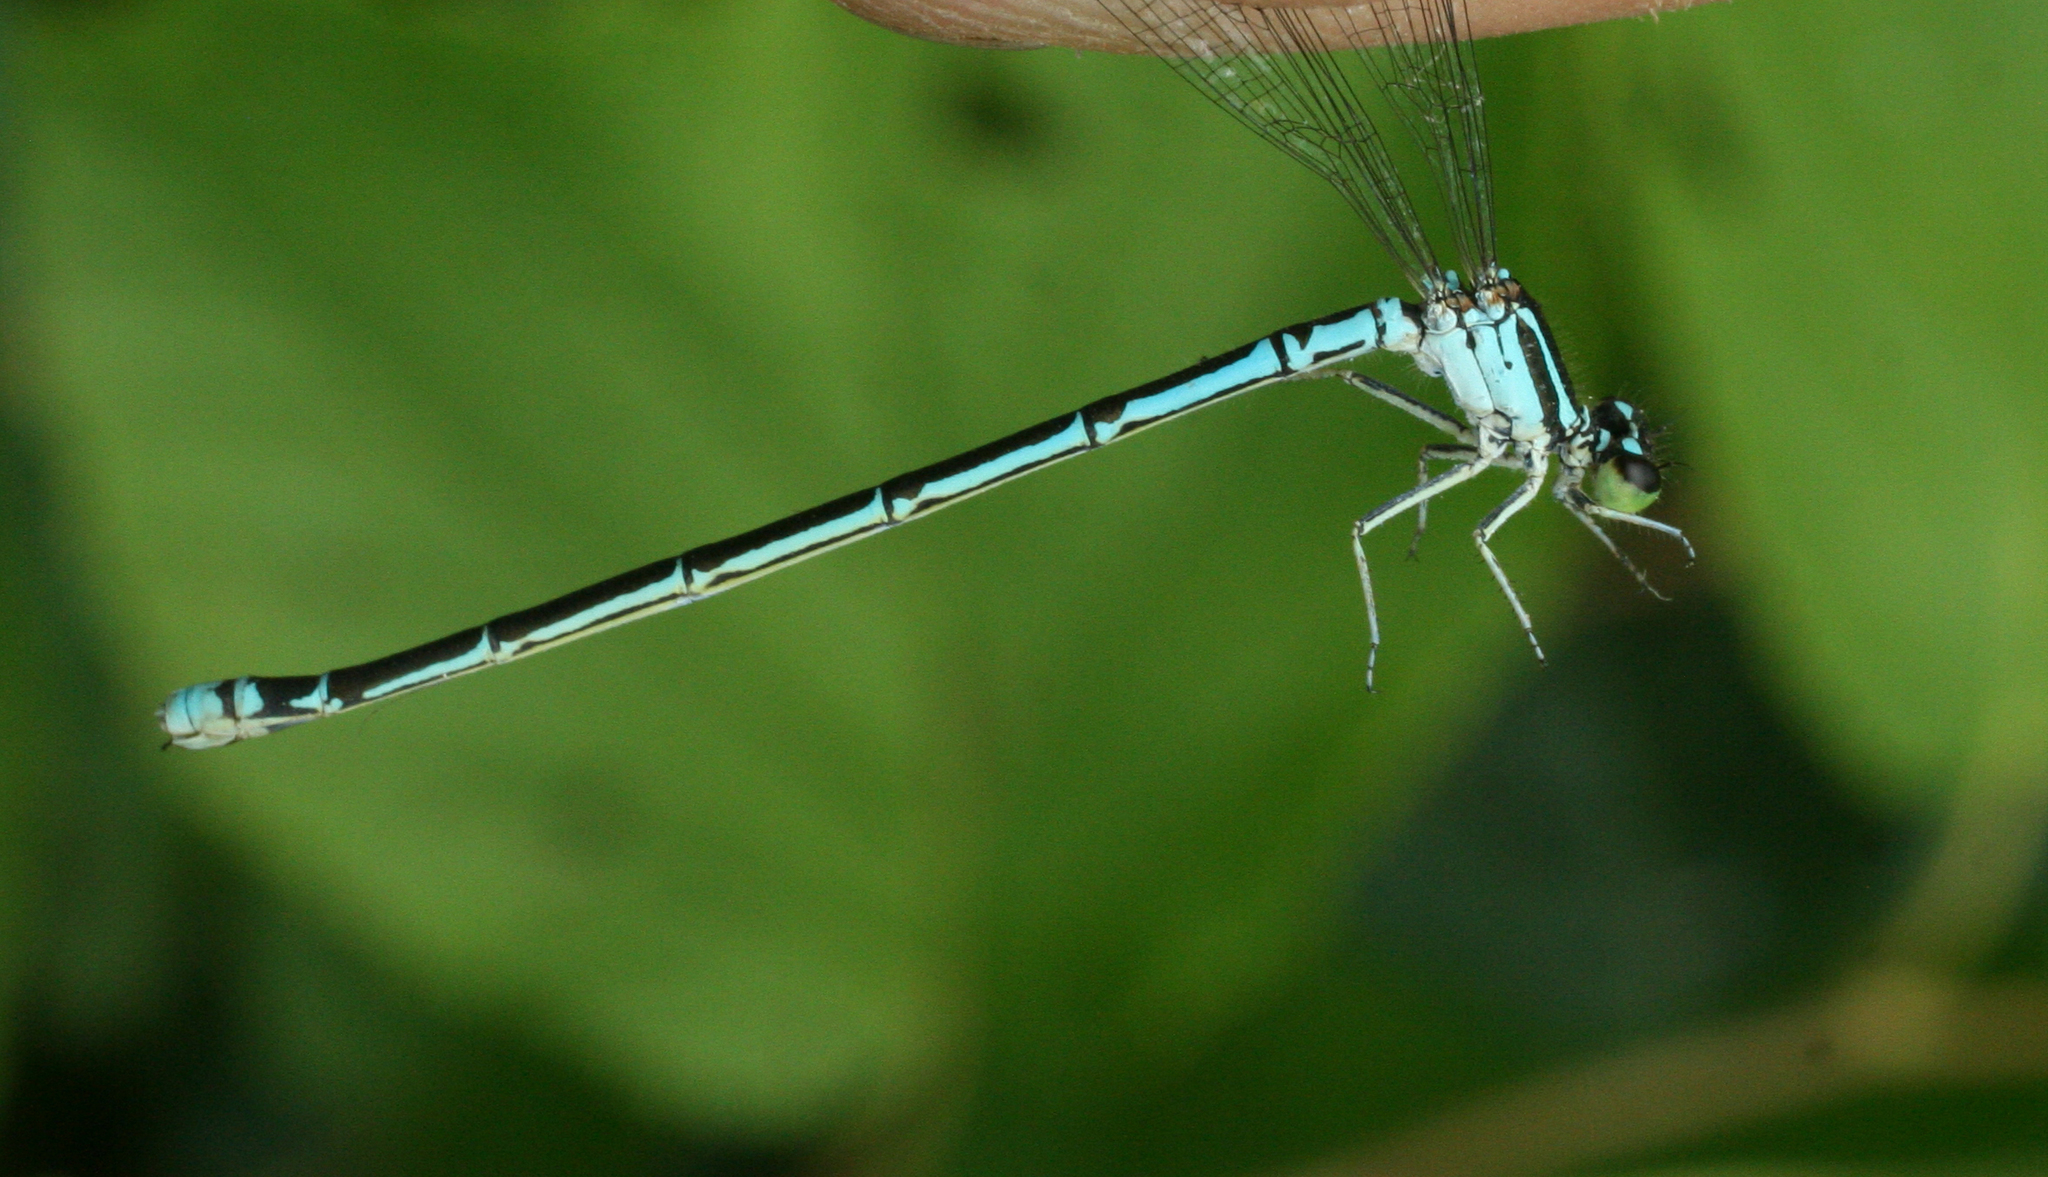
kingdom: Animalia
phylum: Arthropoda
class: Insecta
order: Odonata
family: Coenagrionidae
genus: Coenagrion
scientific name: Coenagrion johanssoni
